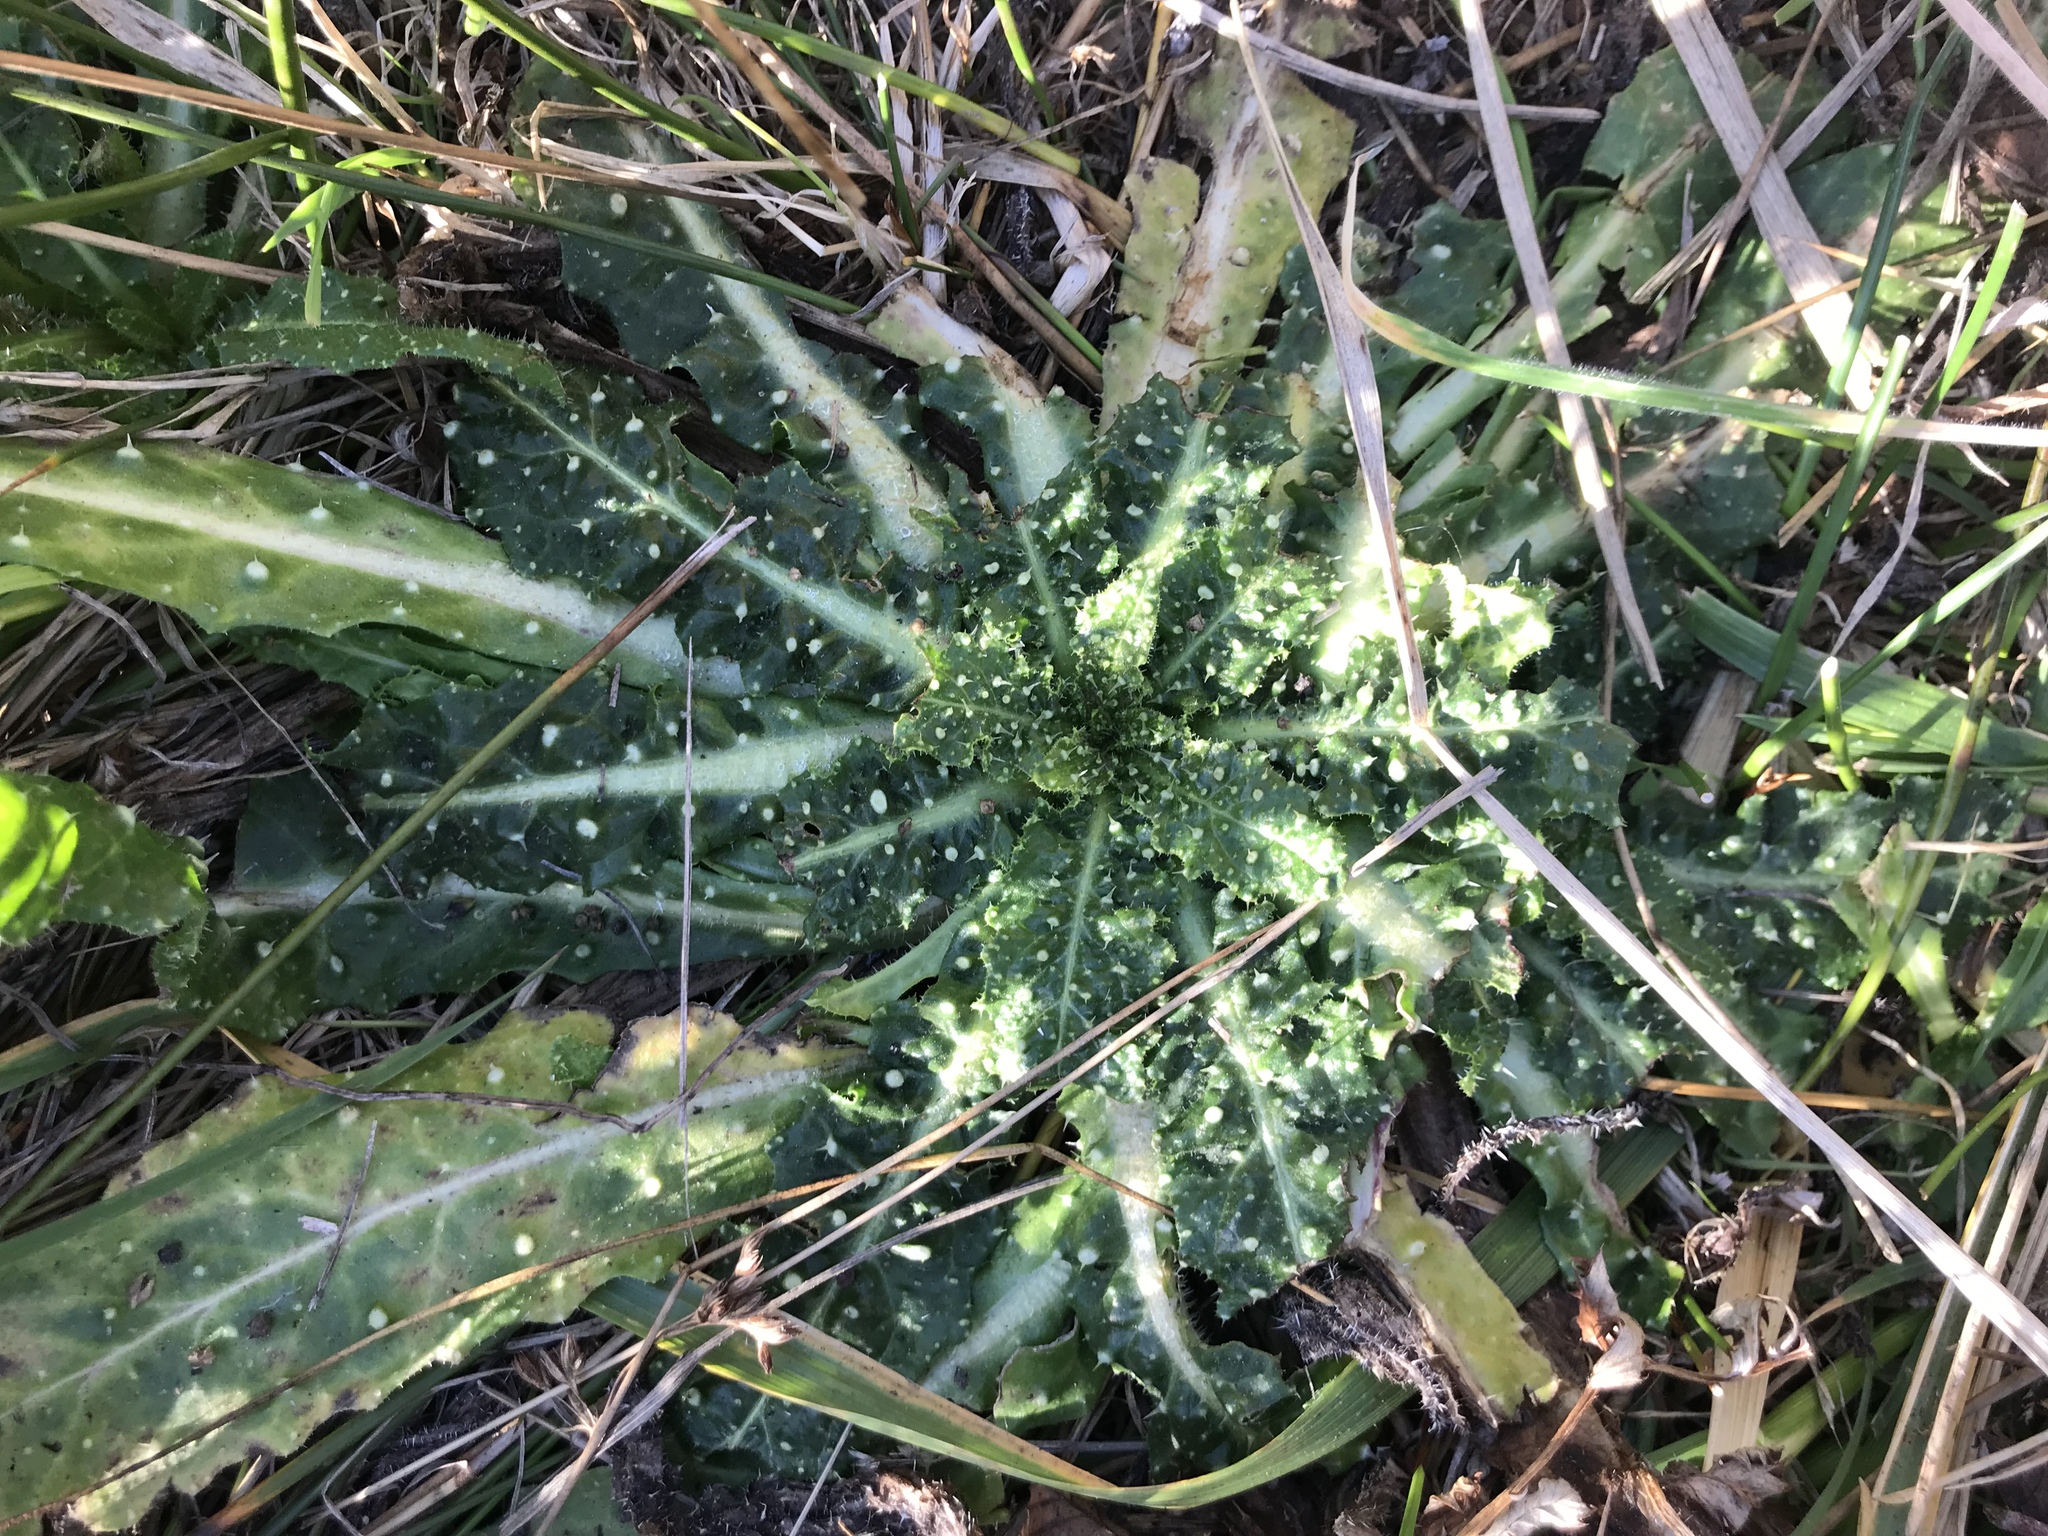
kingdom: Plantae
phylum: Tracheophyta
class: Magnoliopsida
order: Asterales
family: Asteraceae
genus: Helminthotheca
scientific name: Helminthotheca echioides
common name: Ox-tongue
